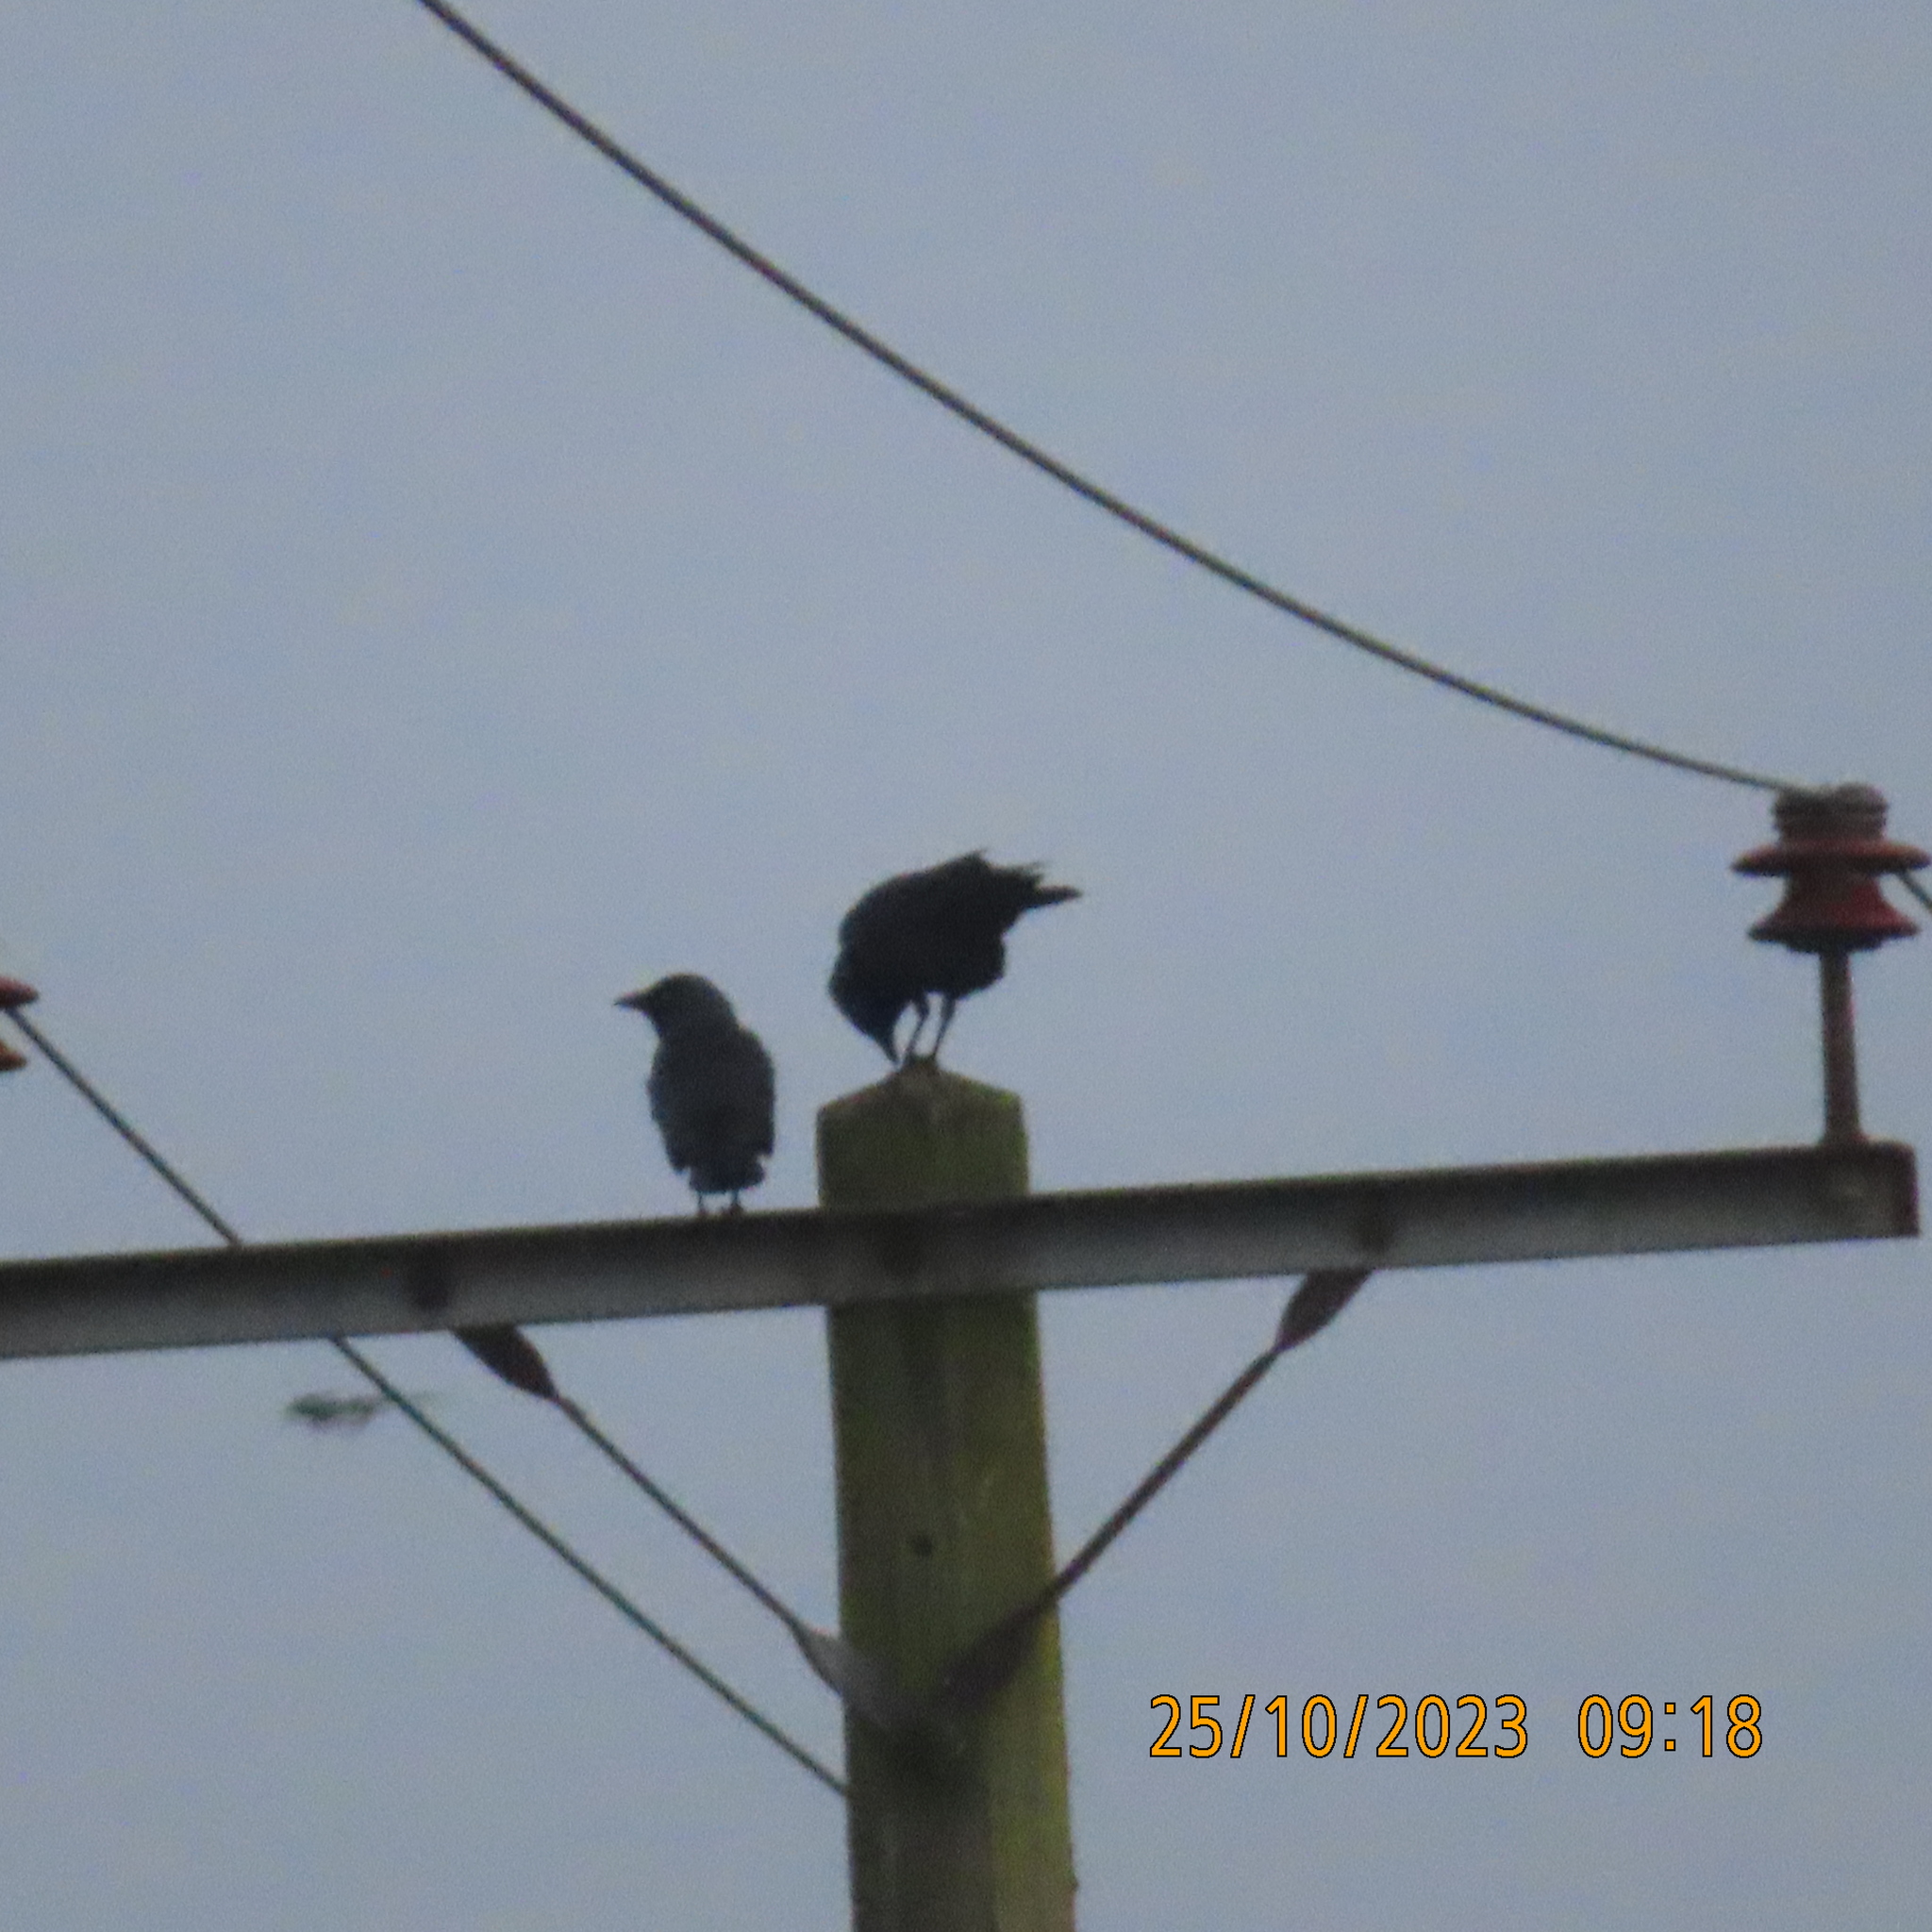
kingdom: Animalia
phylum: Chordata
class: Aves
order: Passeriformes
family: Corvidae
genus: Coloeus
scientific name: Coloeus monedula
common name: Western jackdaw
